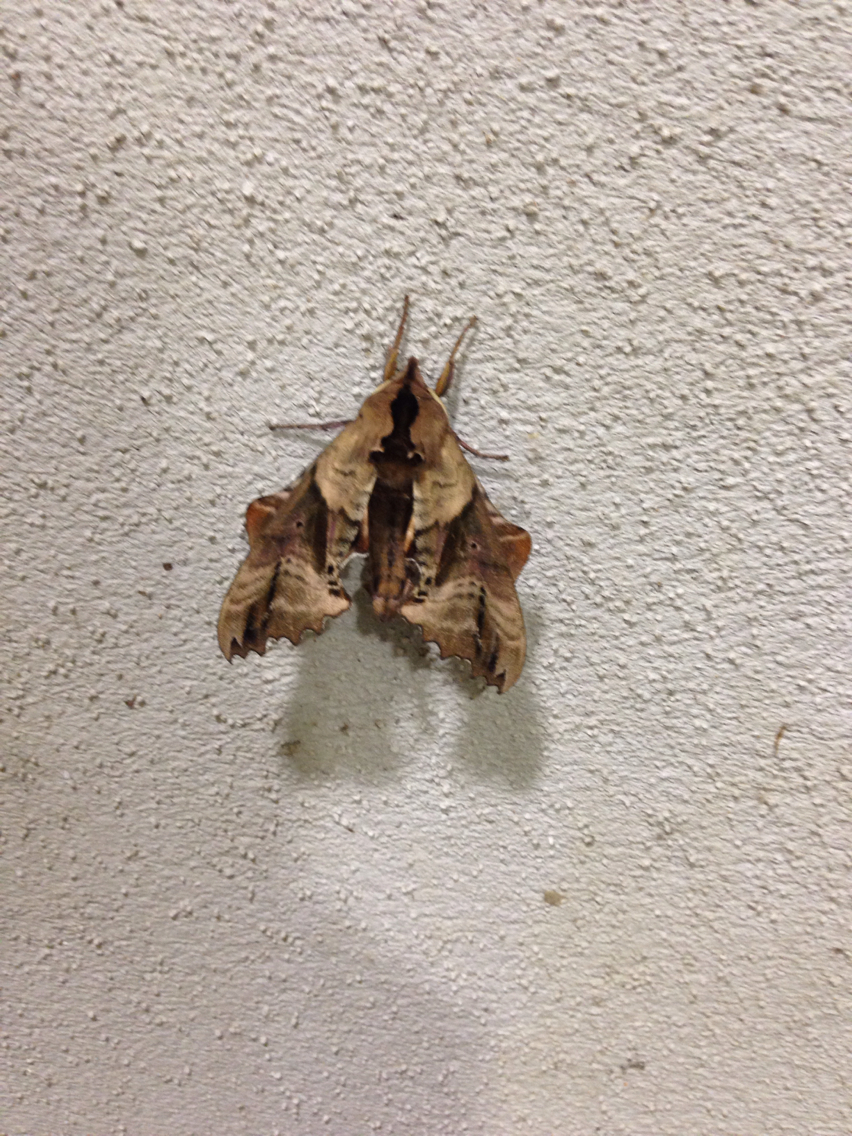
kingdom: Animalia
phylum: Arthropoda
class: Insecta
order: Lepidoptera
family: Sphingidae
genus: Paonias
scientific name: Paonias excaecata
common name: Blind-eyed sphinx
